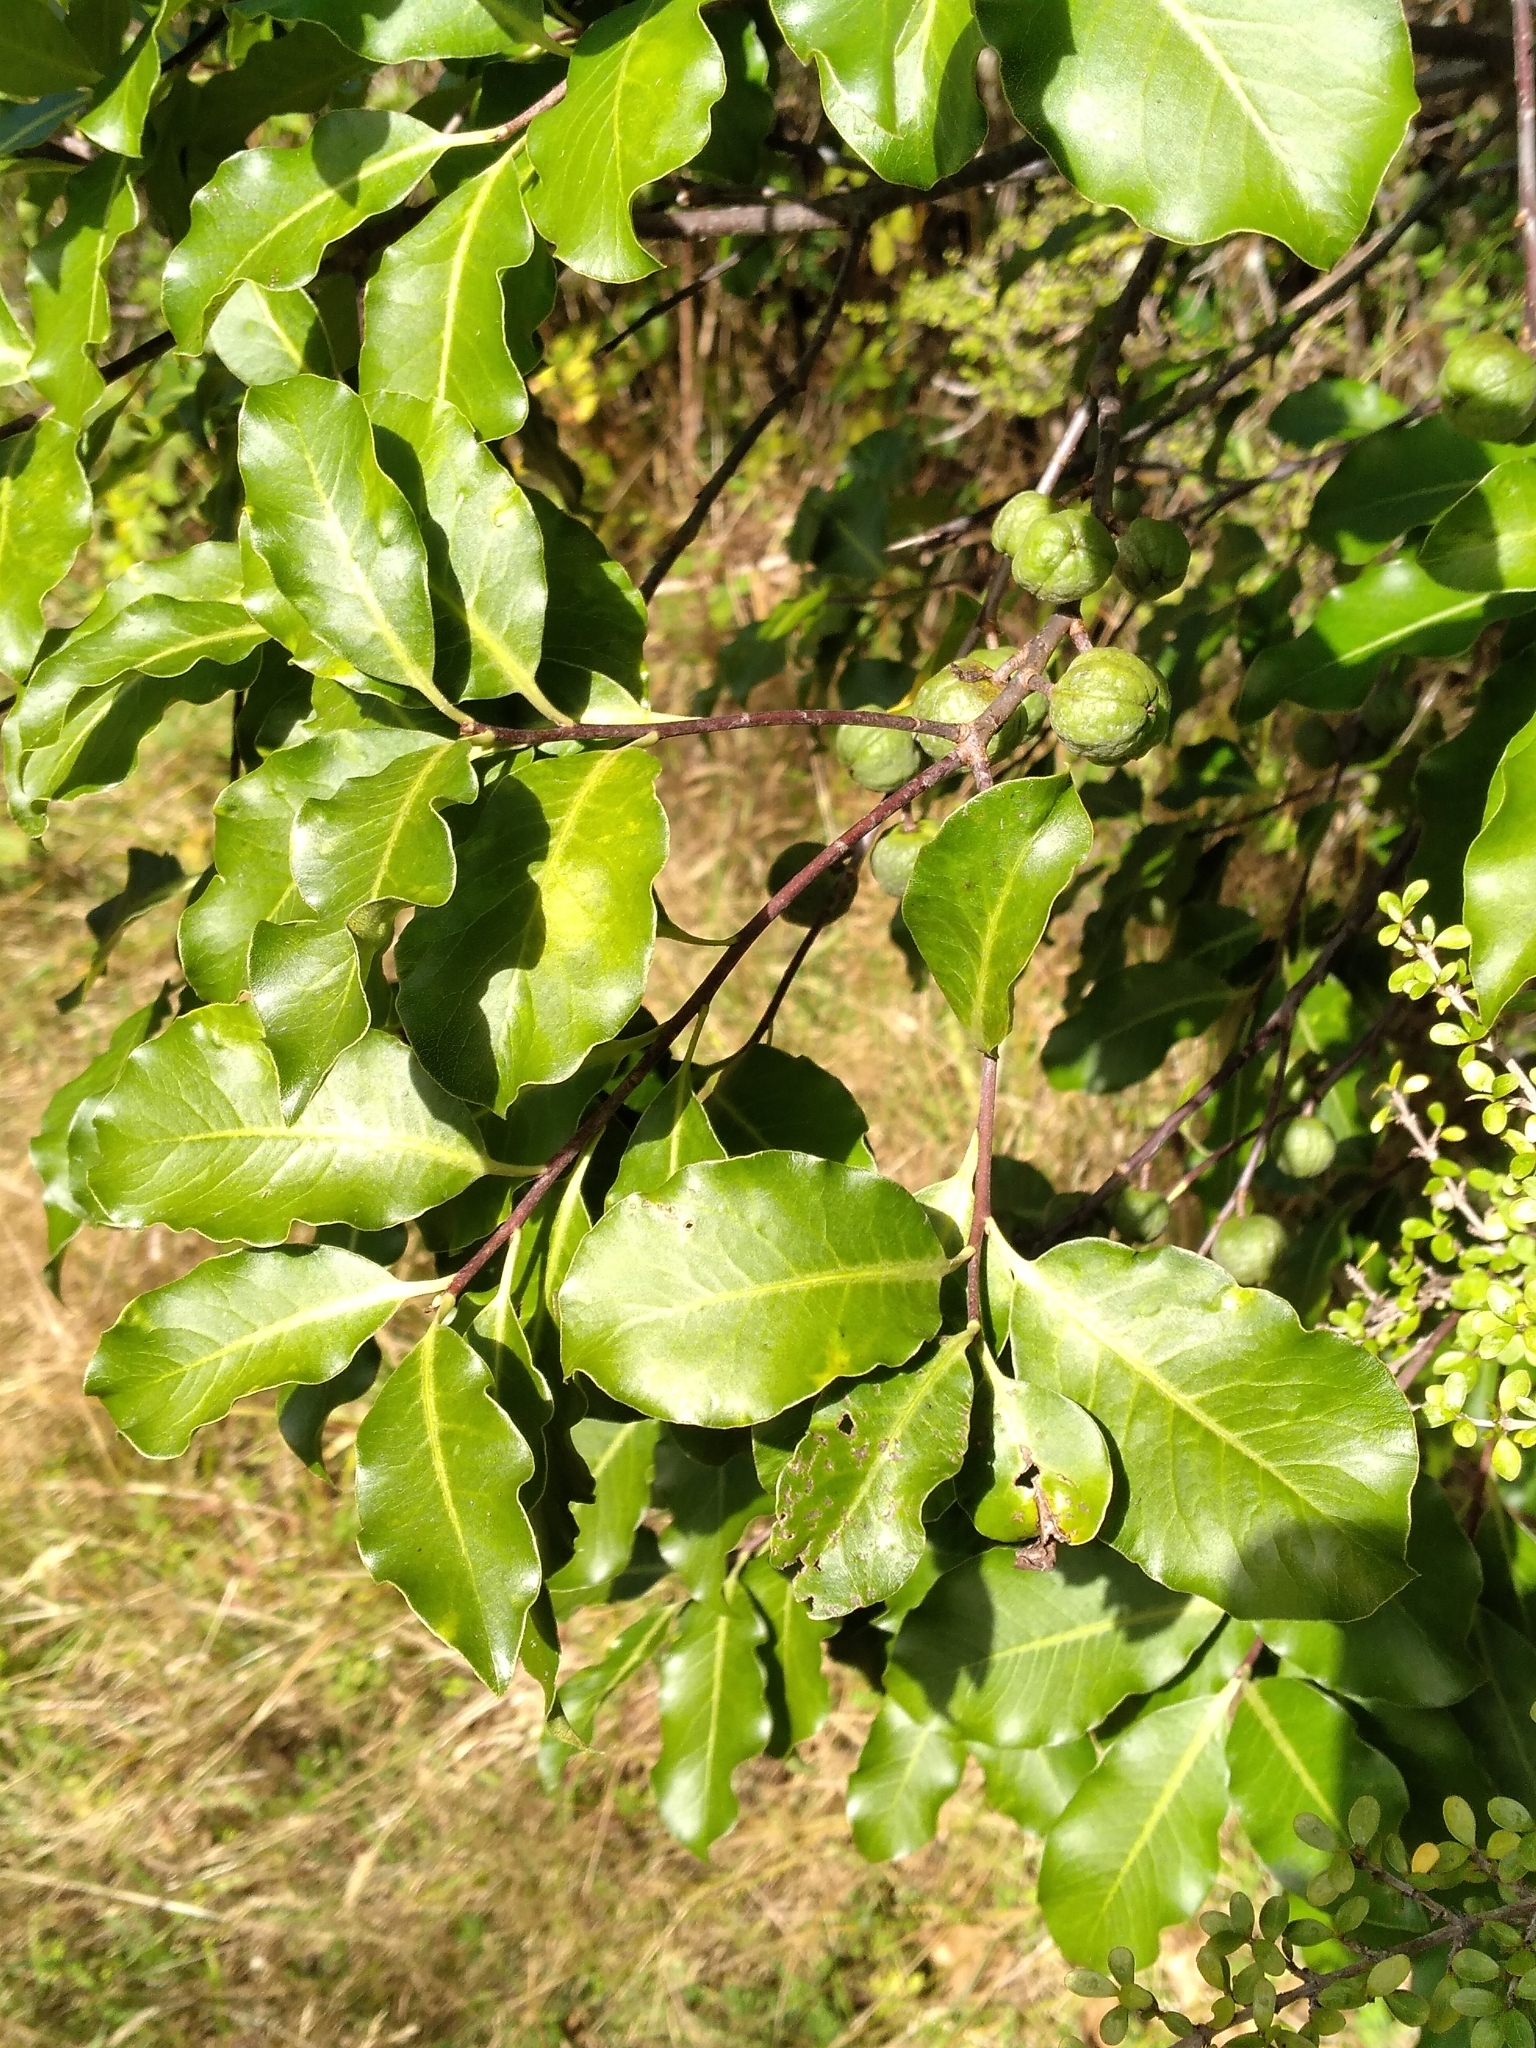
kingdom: Plantae
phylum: Tracheophyta
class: Magnoliopsida
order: Apiales
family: Pittosporaceae
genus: Pittosporum
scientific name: Pittosporum tenuifolium
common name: Kohuhu
